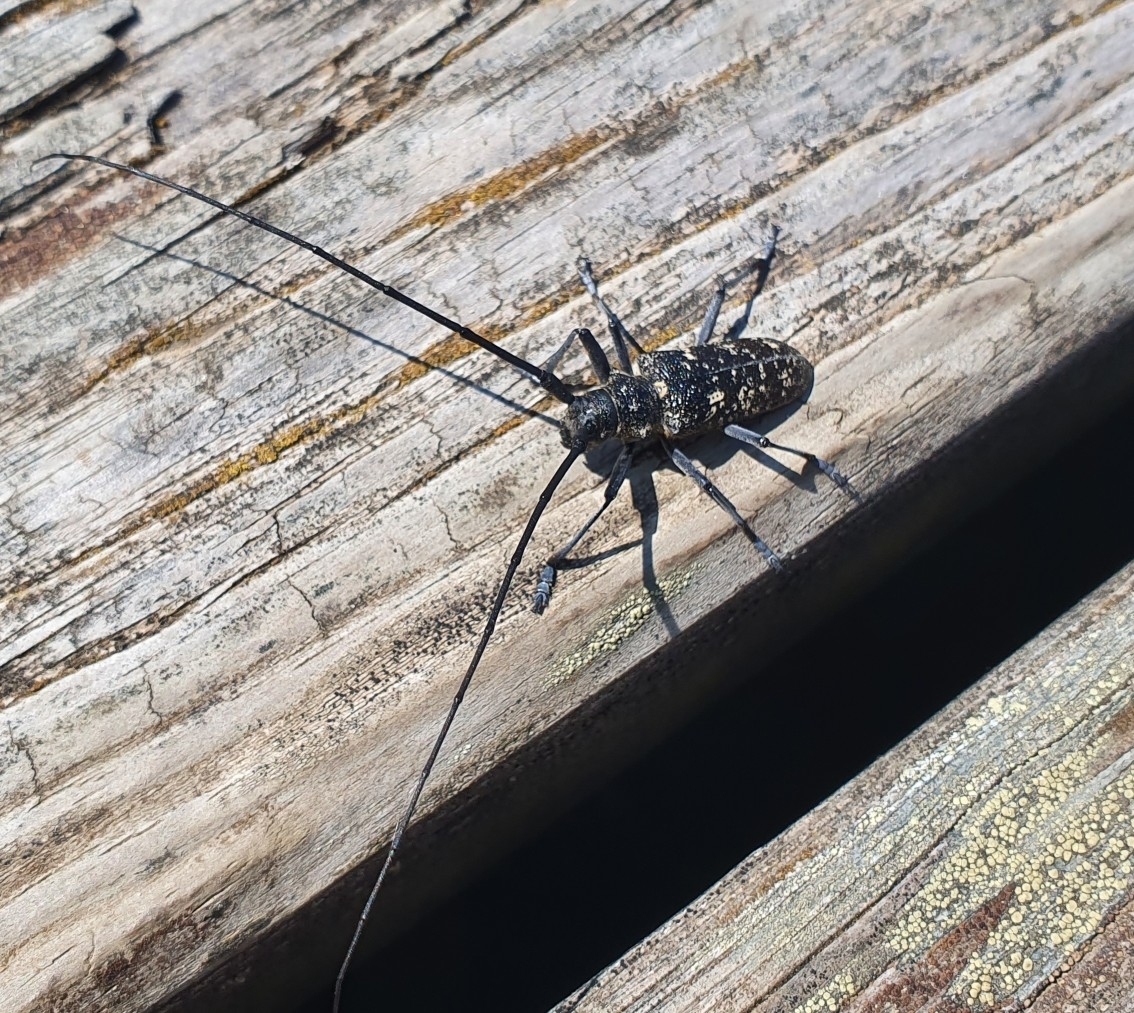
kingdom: Animalia
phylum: Arthropoda
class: Insecta
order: Coleoptera
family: Cerambycidae
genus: Monochamus
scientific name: Monochamus sutor
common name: Pine sawyer
